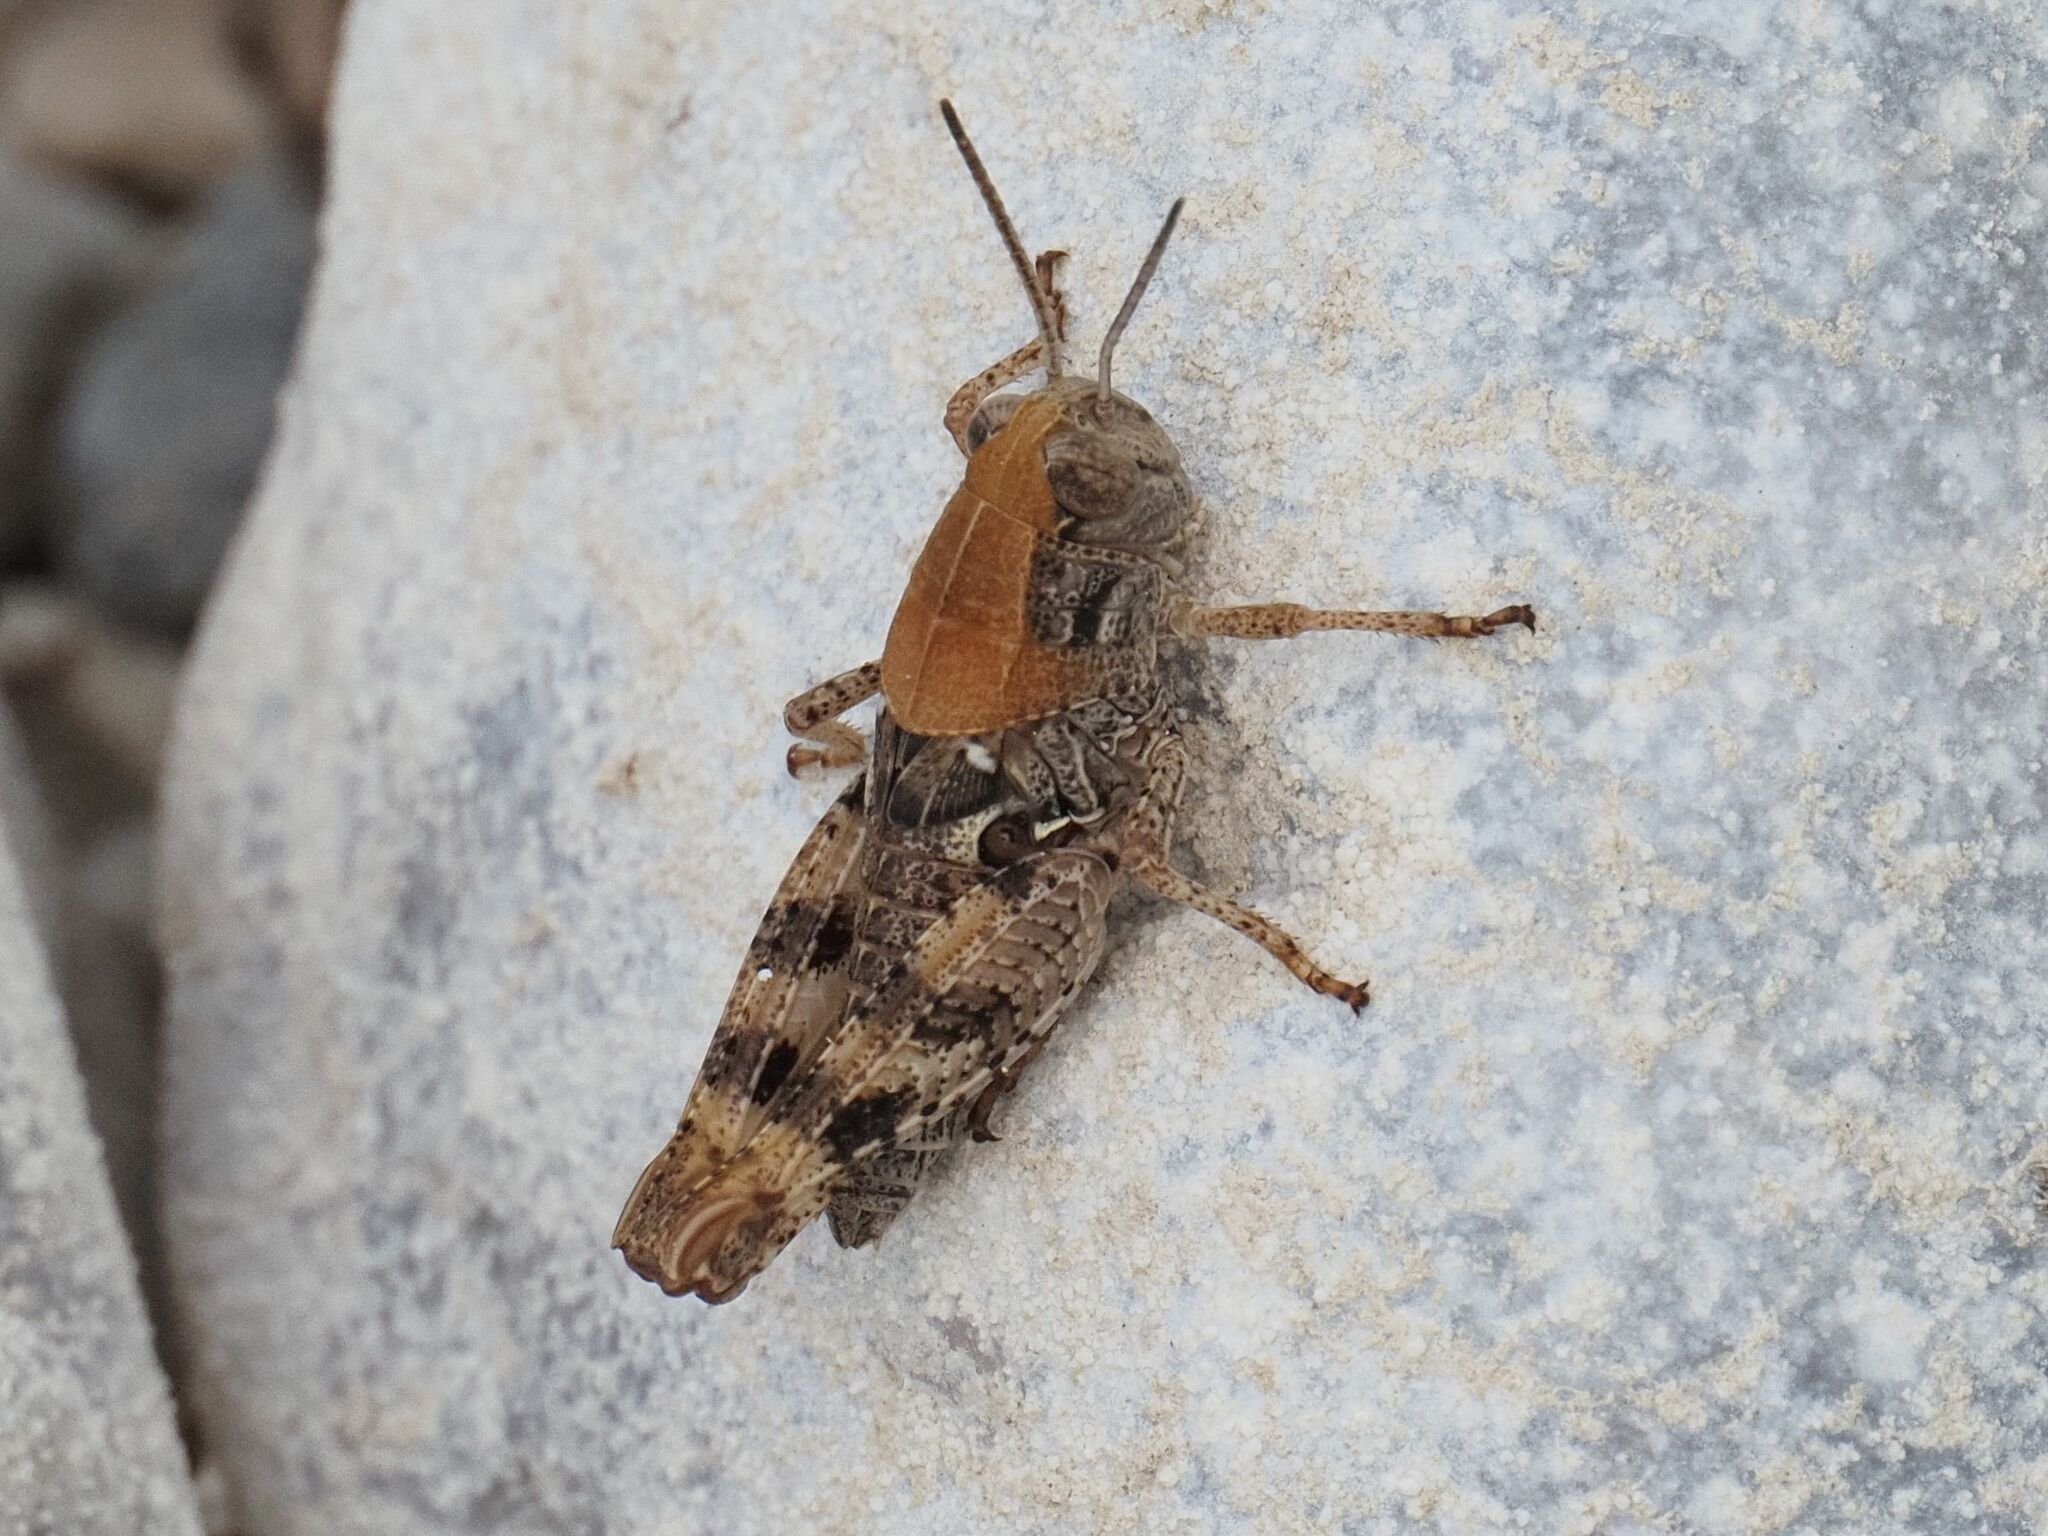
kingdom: Animalia
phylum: Arthropoda
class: Insecta
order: Orthoptera
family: Acrididae
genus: Calliptamus
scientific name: Calliptamus italicus
